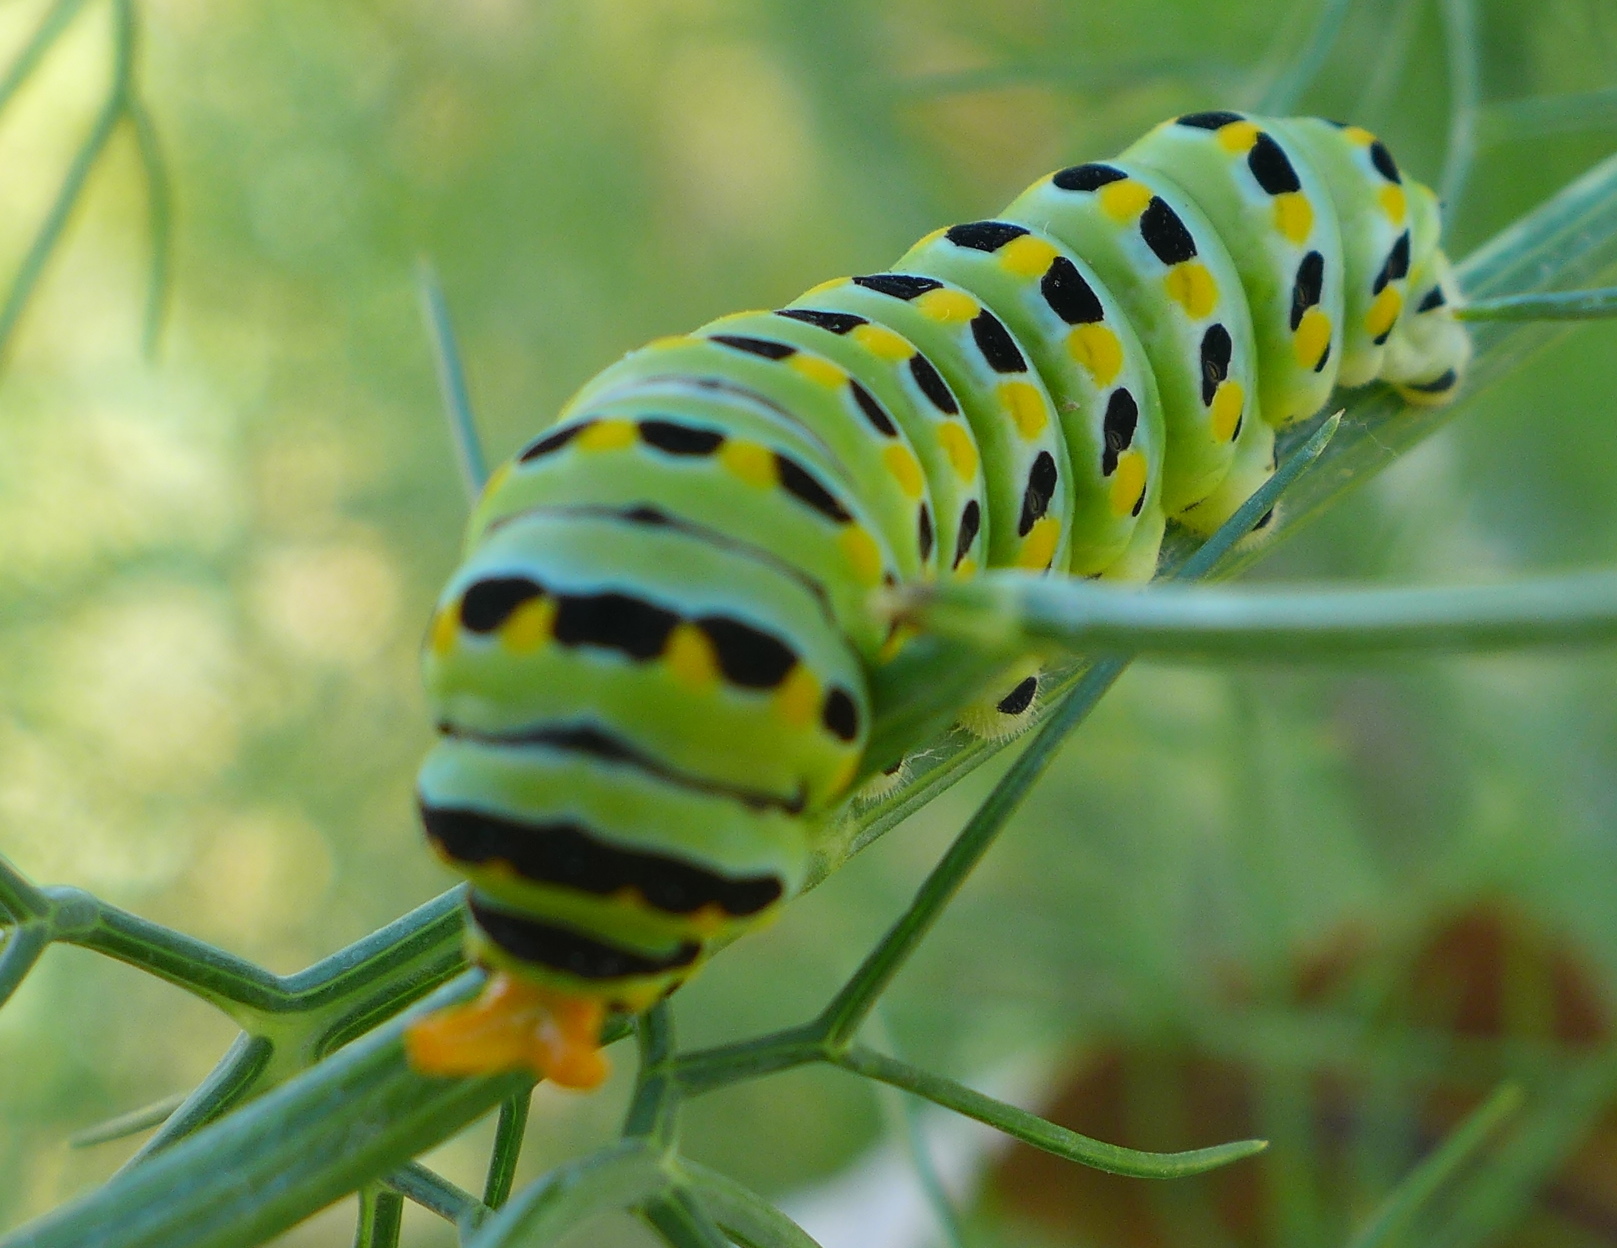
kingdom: Animalia
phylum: Arthropoda
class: Insecta
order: Lepidoptera
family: Papilionidae
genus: Papilio
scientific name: Papilio zelicaon
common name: Anise swallowtail
